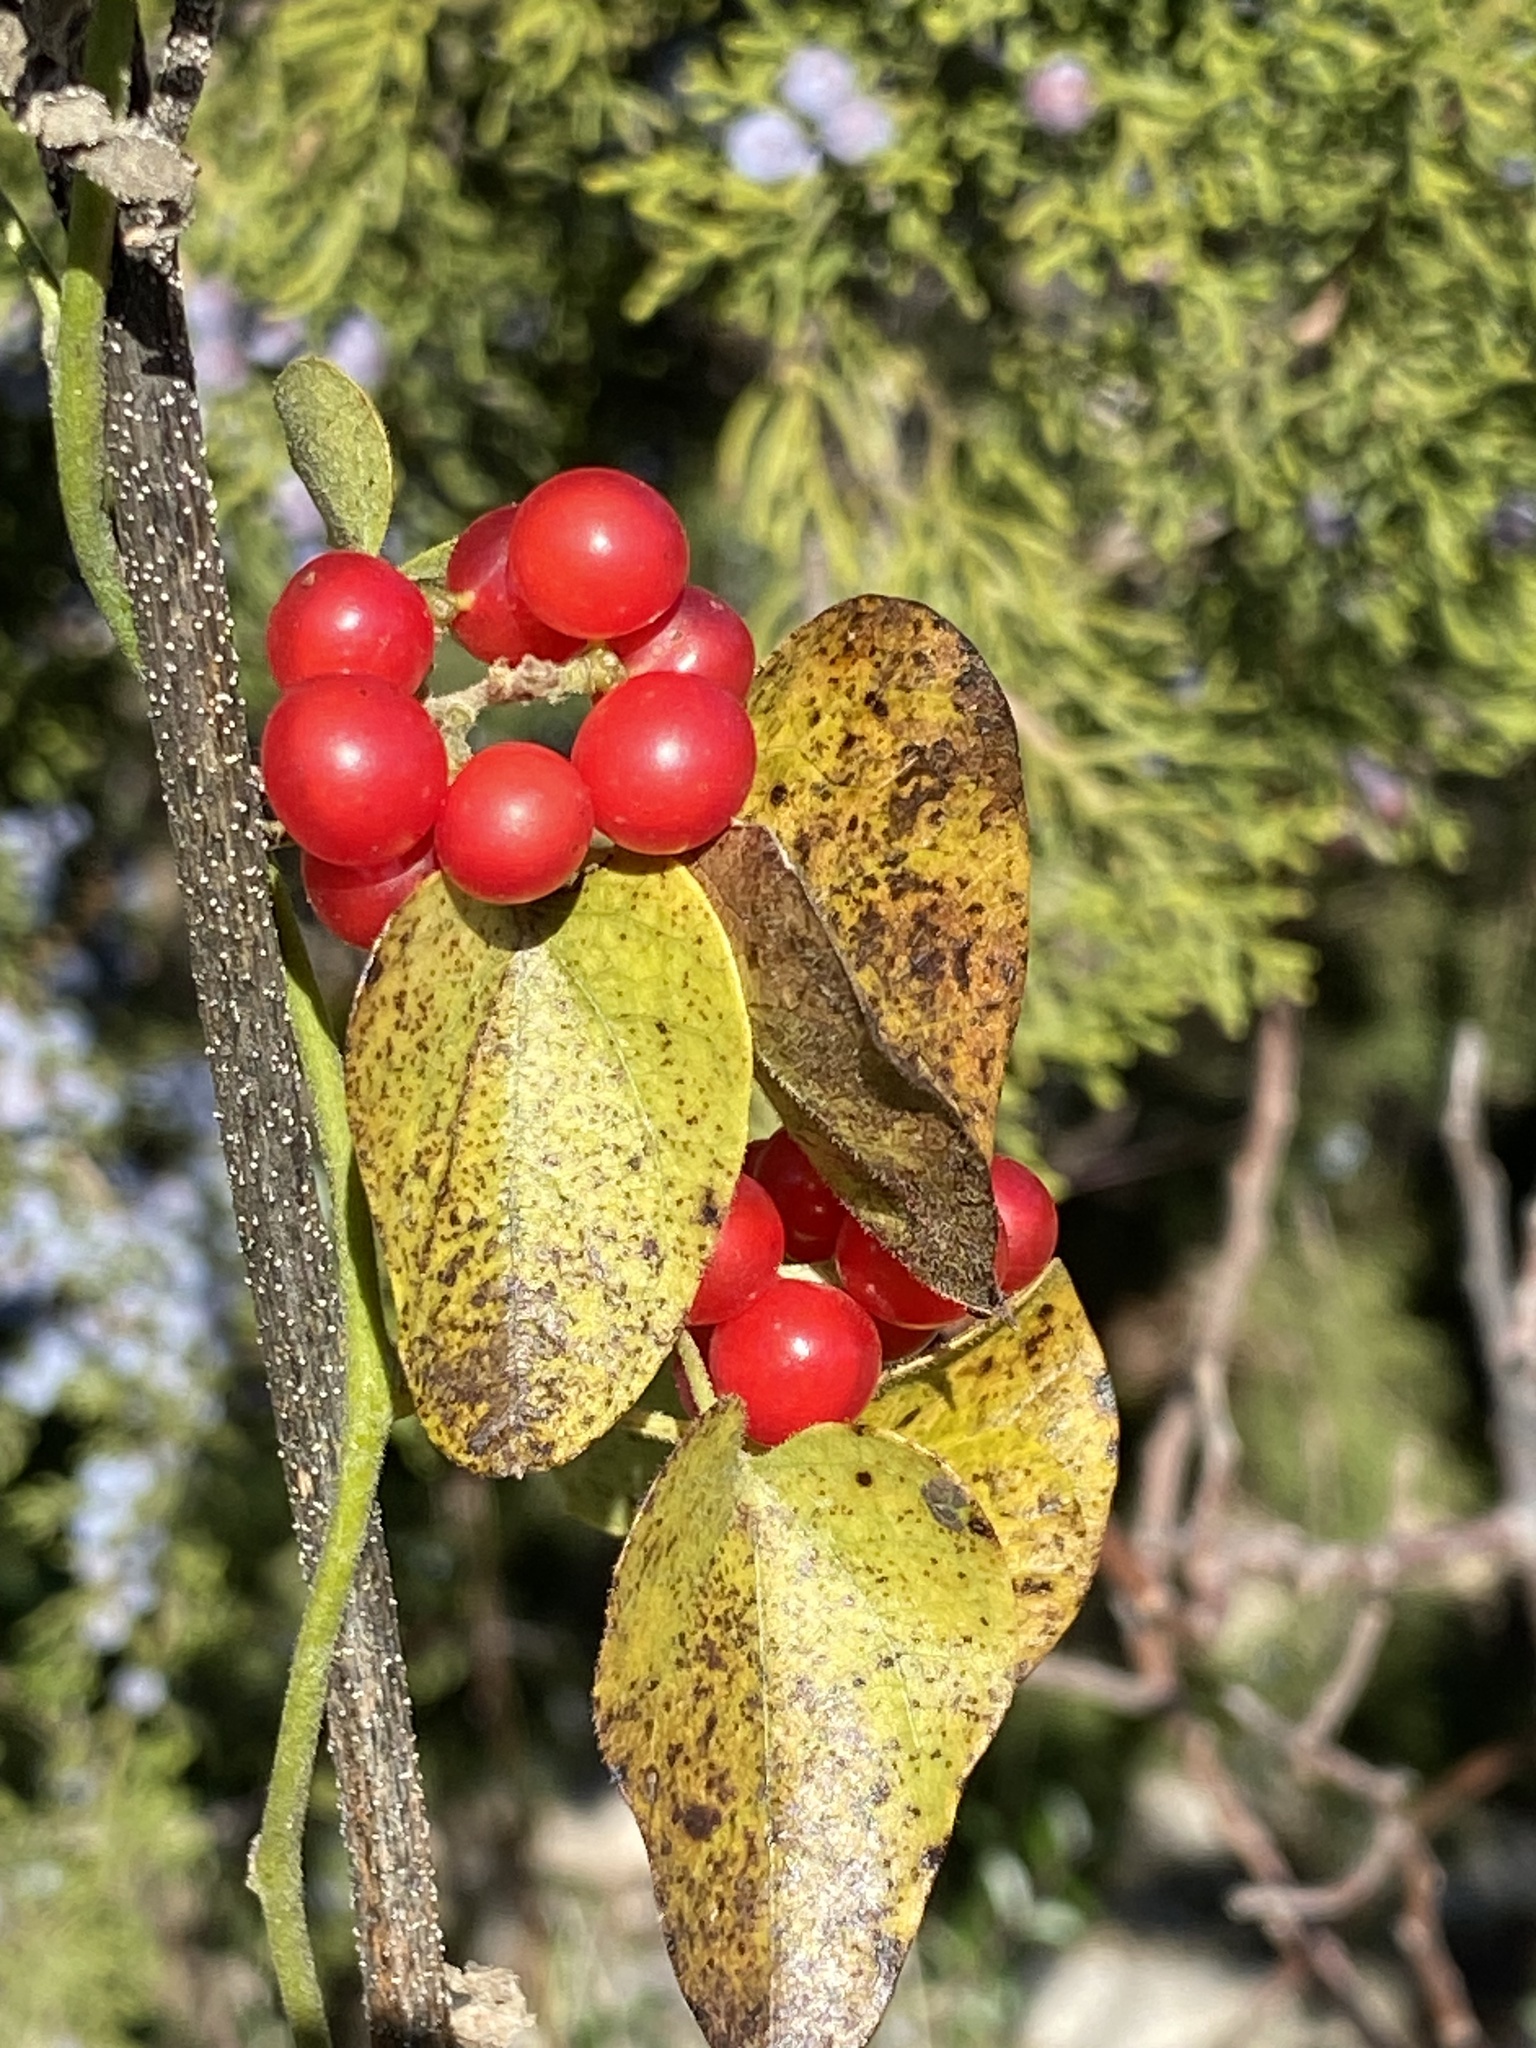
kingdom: Plantae
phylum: Tracheophyta
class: Magnoliopsida
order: Ranunculales
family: Menispermaceae
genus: Cocculus
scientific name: Cocculus carolinus
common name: Carolina moonseed
